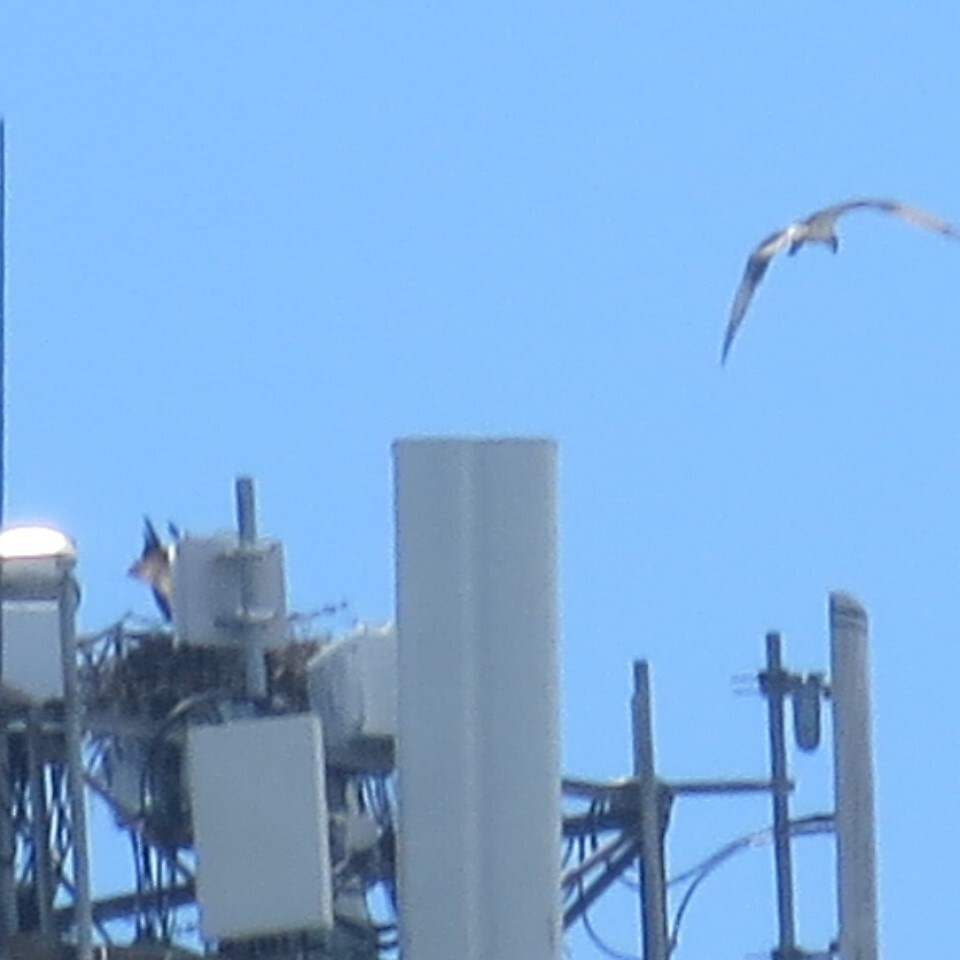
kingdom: Animalia
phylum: Chordata
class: Aves
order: Accipitriformes
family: Pandionidae
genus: Pandion
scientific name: Pandion haliaetus
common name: Osprey
